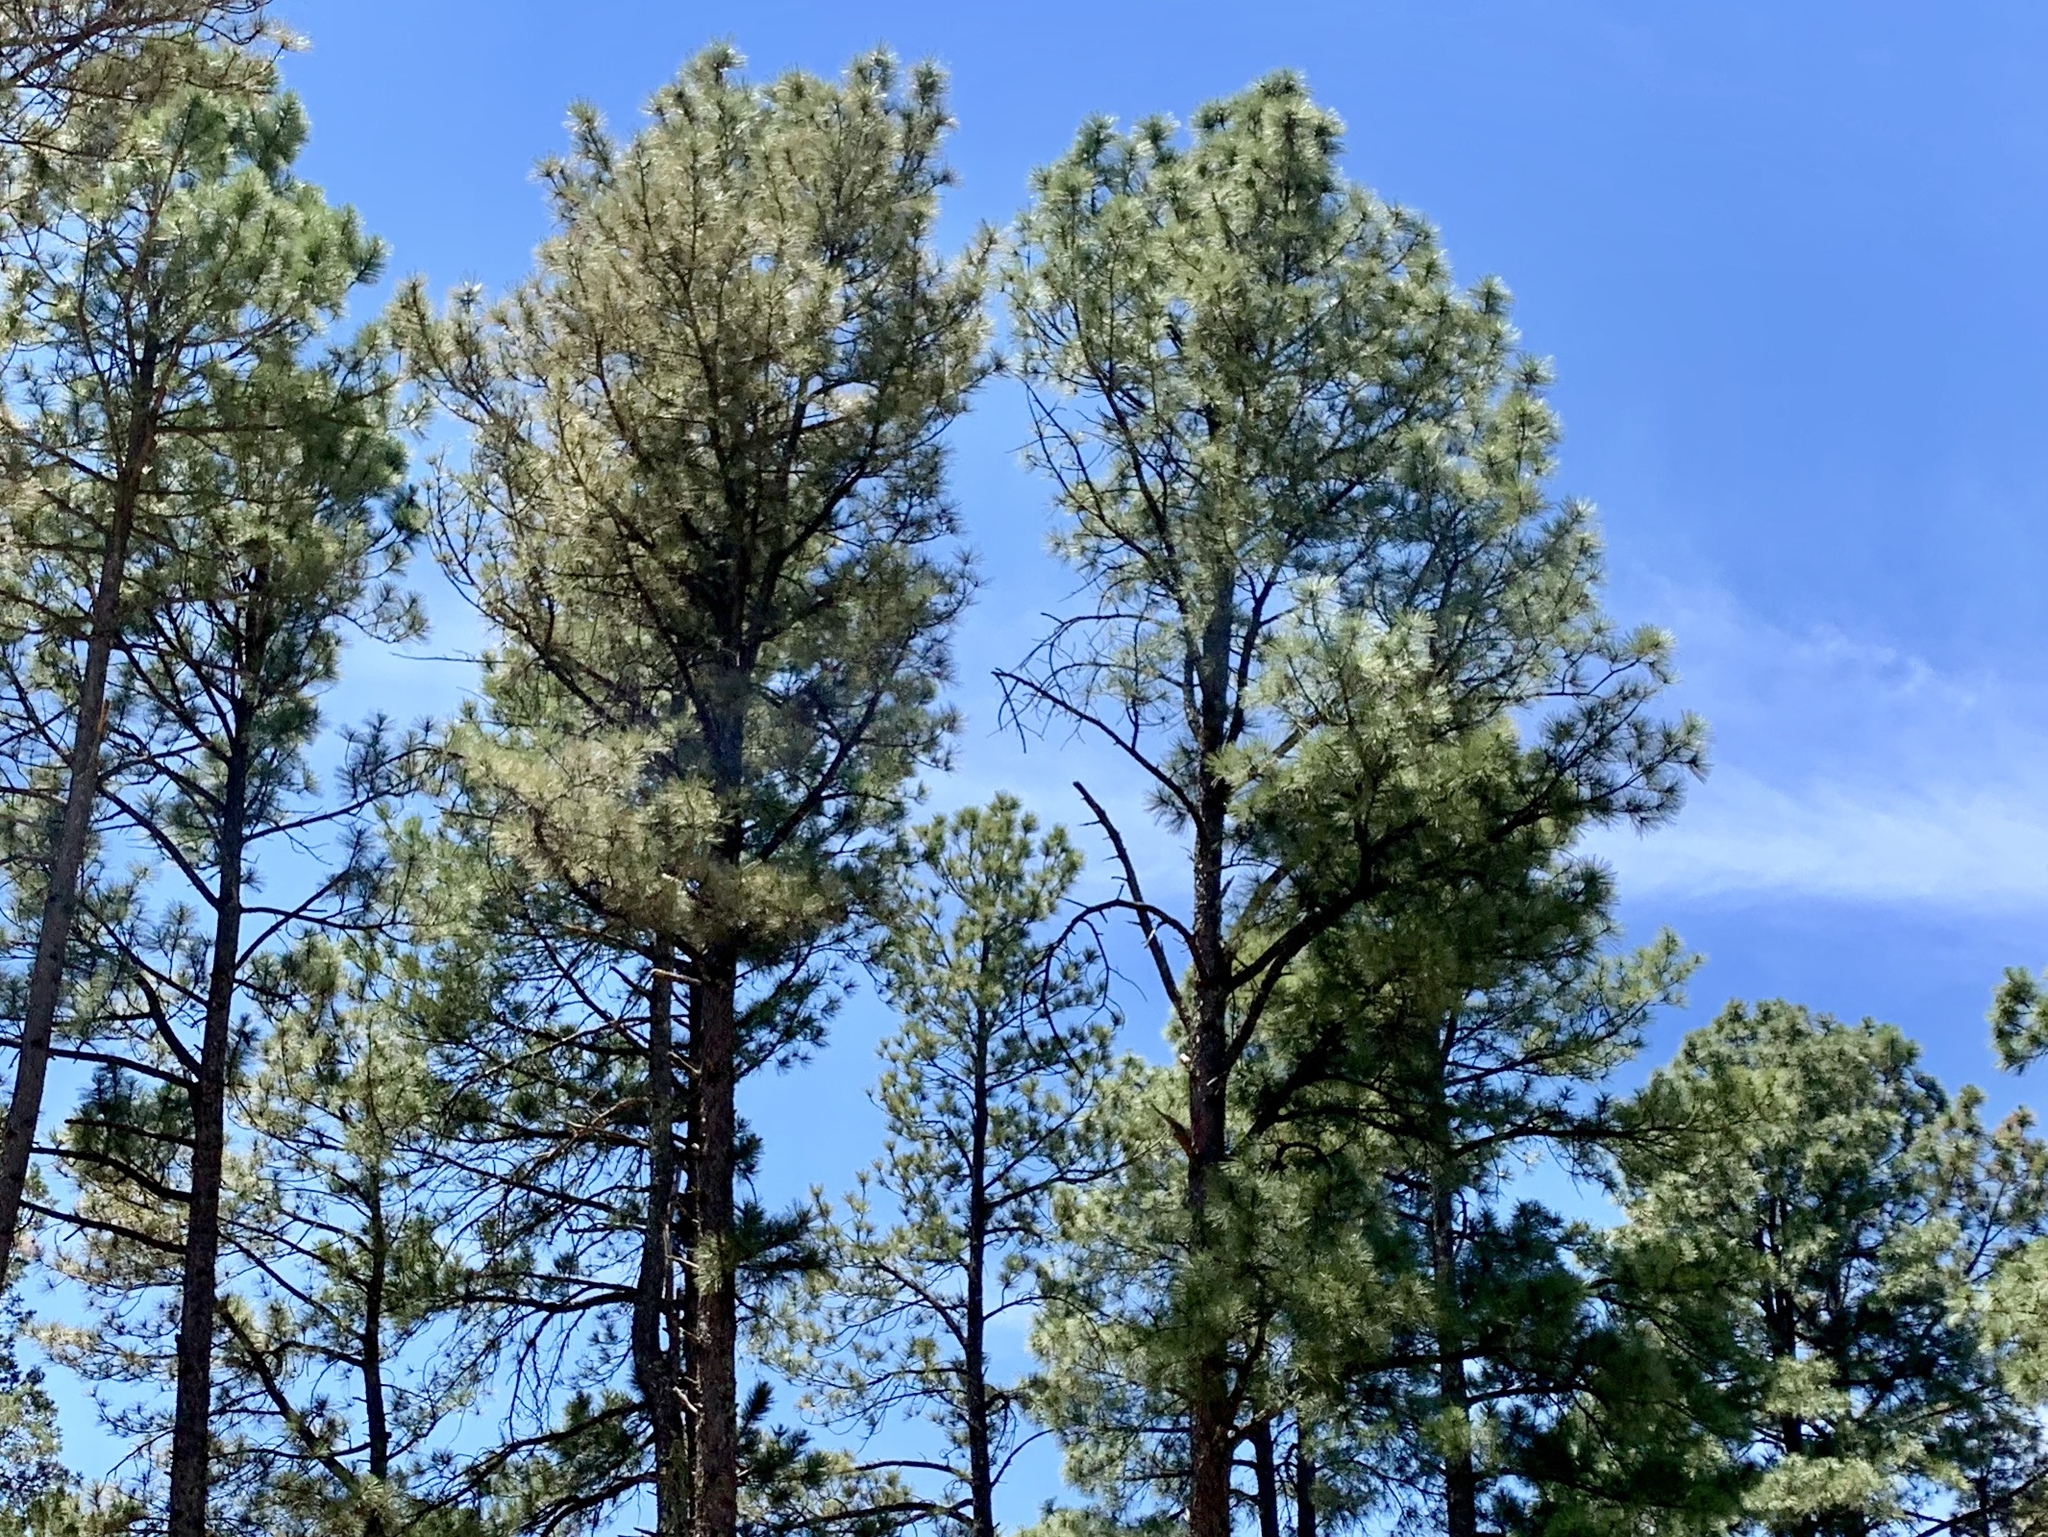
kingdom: Plantae
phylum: Tracheophyta
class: Pinopsida
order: Pinales
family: Pinaceae
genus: Pinus
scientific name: Pinus ponderosa
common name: Western yellow-pine
